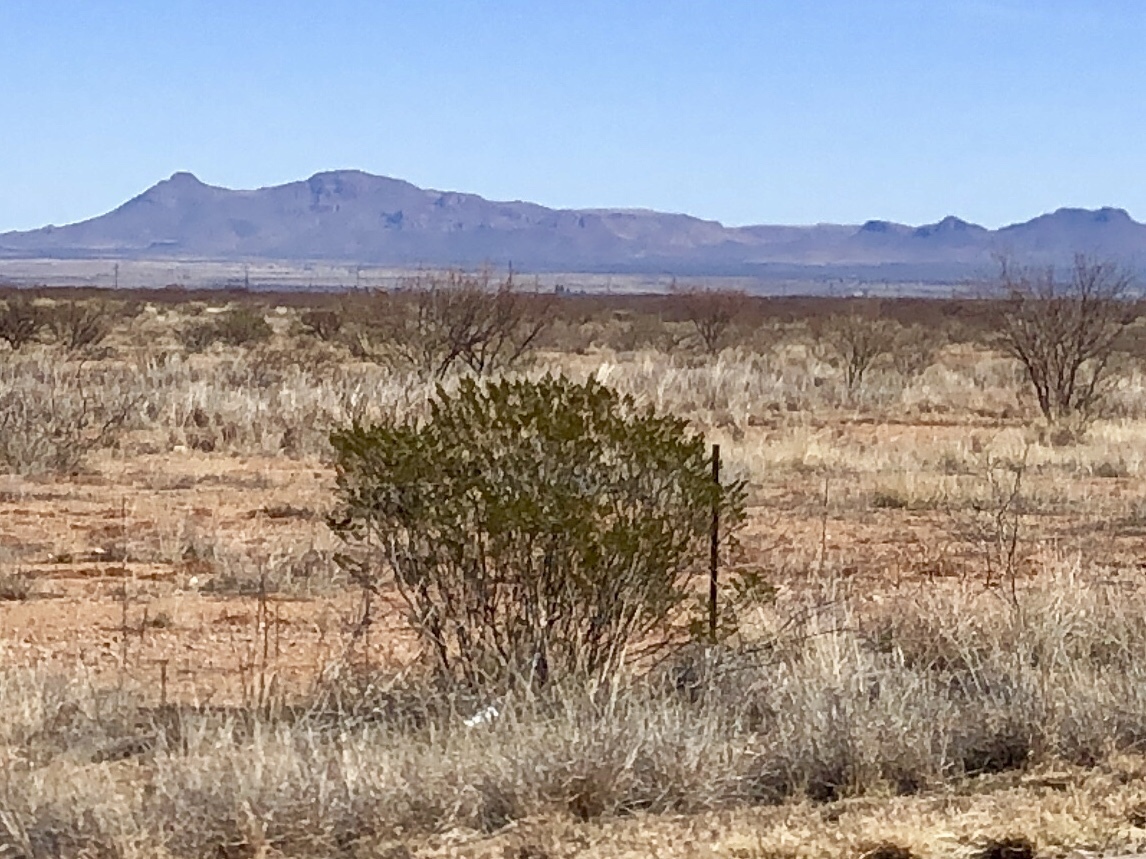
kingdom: Plantae
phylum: Tracheophyta
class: Magnoliopsida
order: Zygophyllales
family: Zygophyllaceae
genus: Larrea
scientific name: Larrea tridentata
